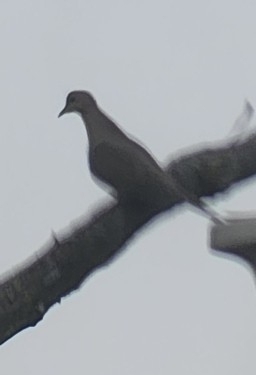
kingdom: Animalia
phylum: Chordata
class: Aves
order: Columbiformes
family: Columbidae
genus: Zenaida
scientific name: Zenaida macroura
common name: Mourning dove
